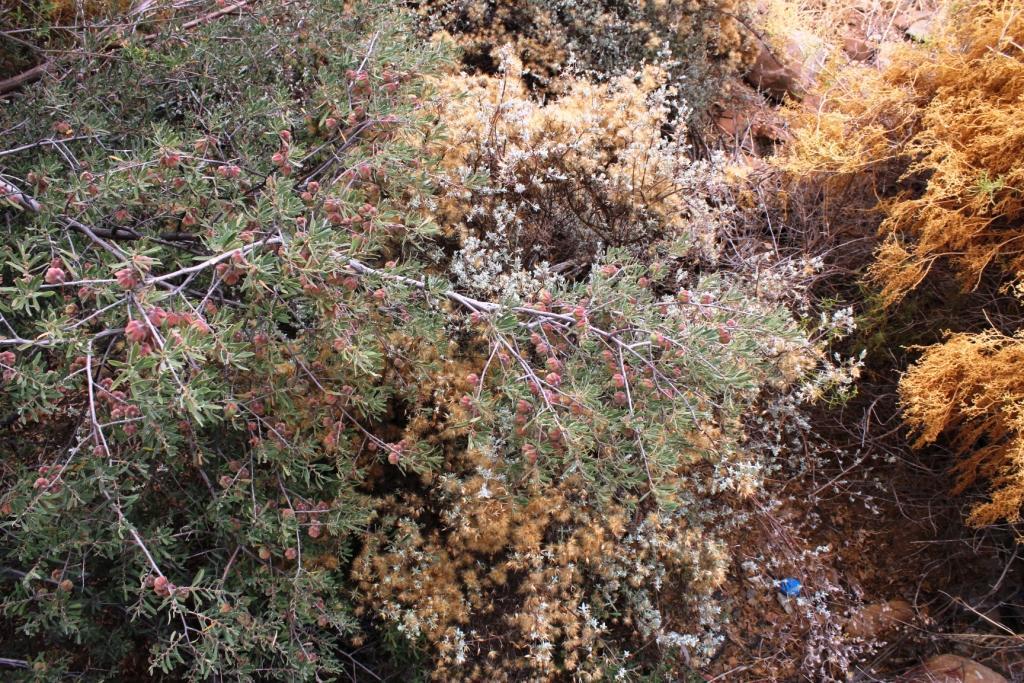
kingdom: Plantae
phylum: Tracheophyta
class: Magnoliopsida
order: Ericales
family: Ebenaceae
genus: Diospyros
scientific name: Diospyros pubescens
